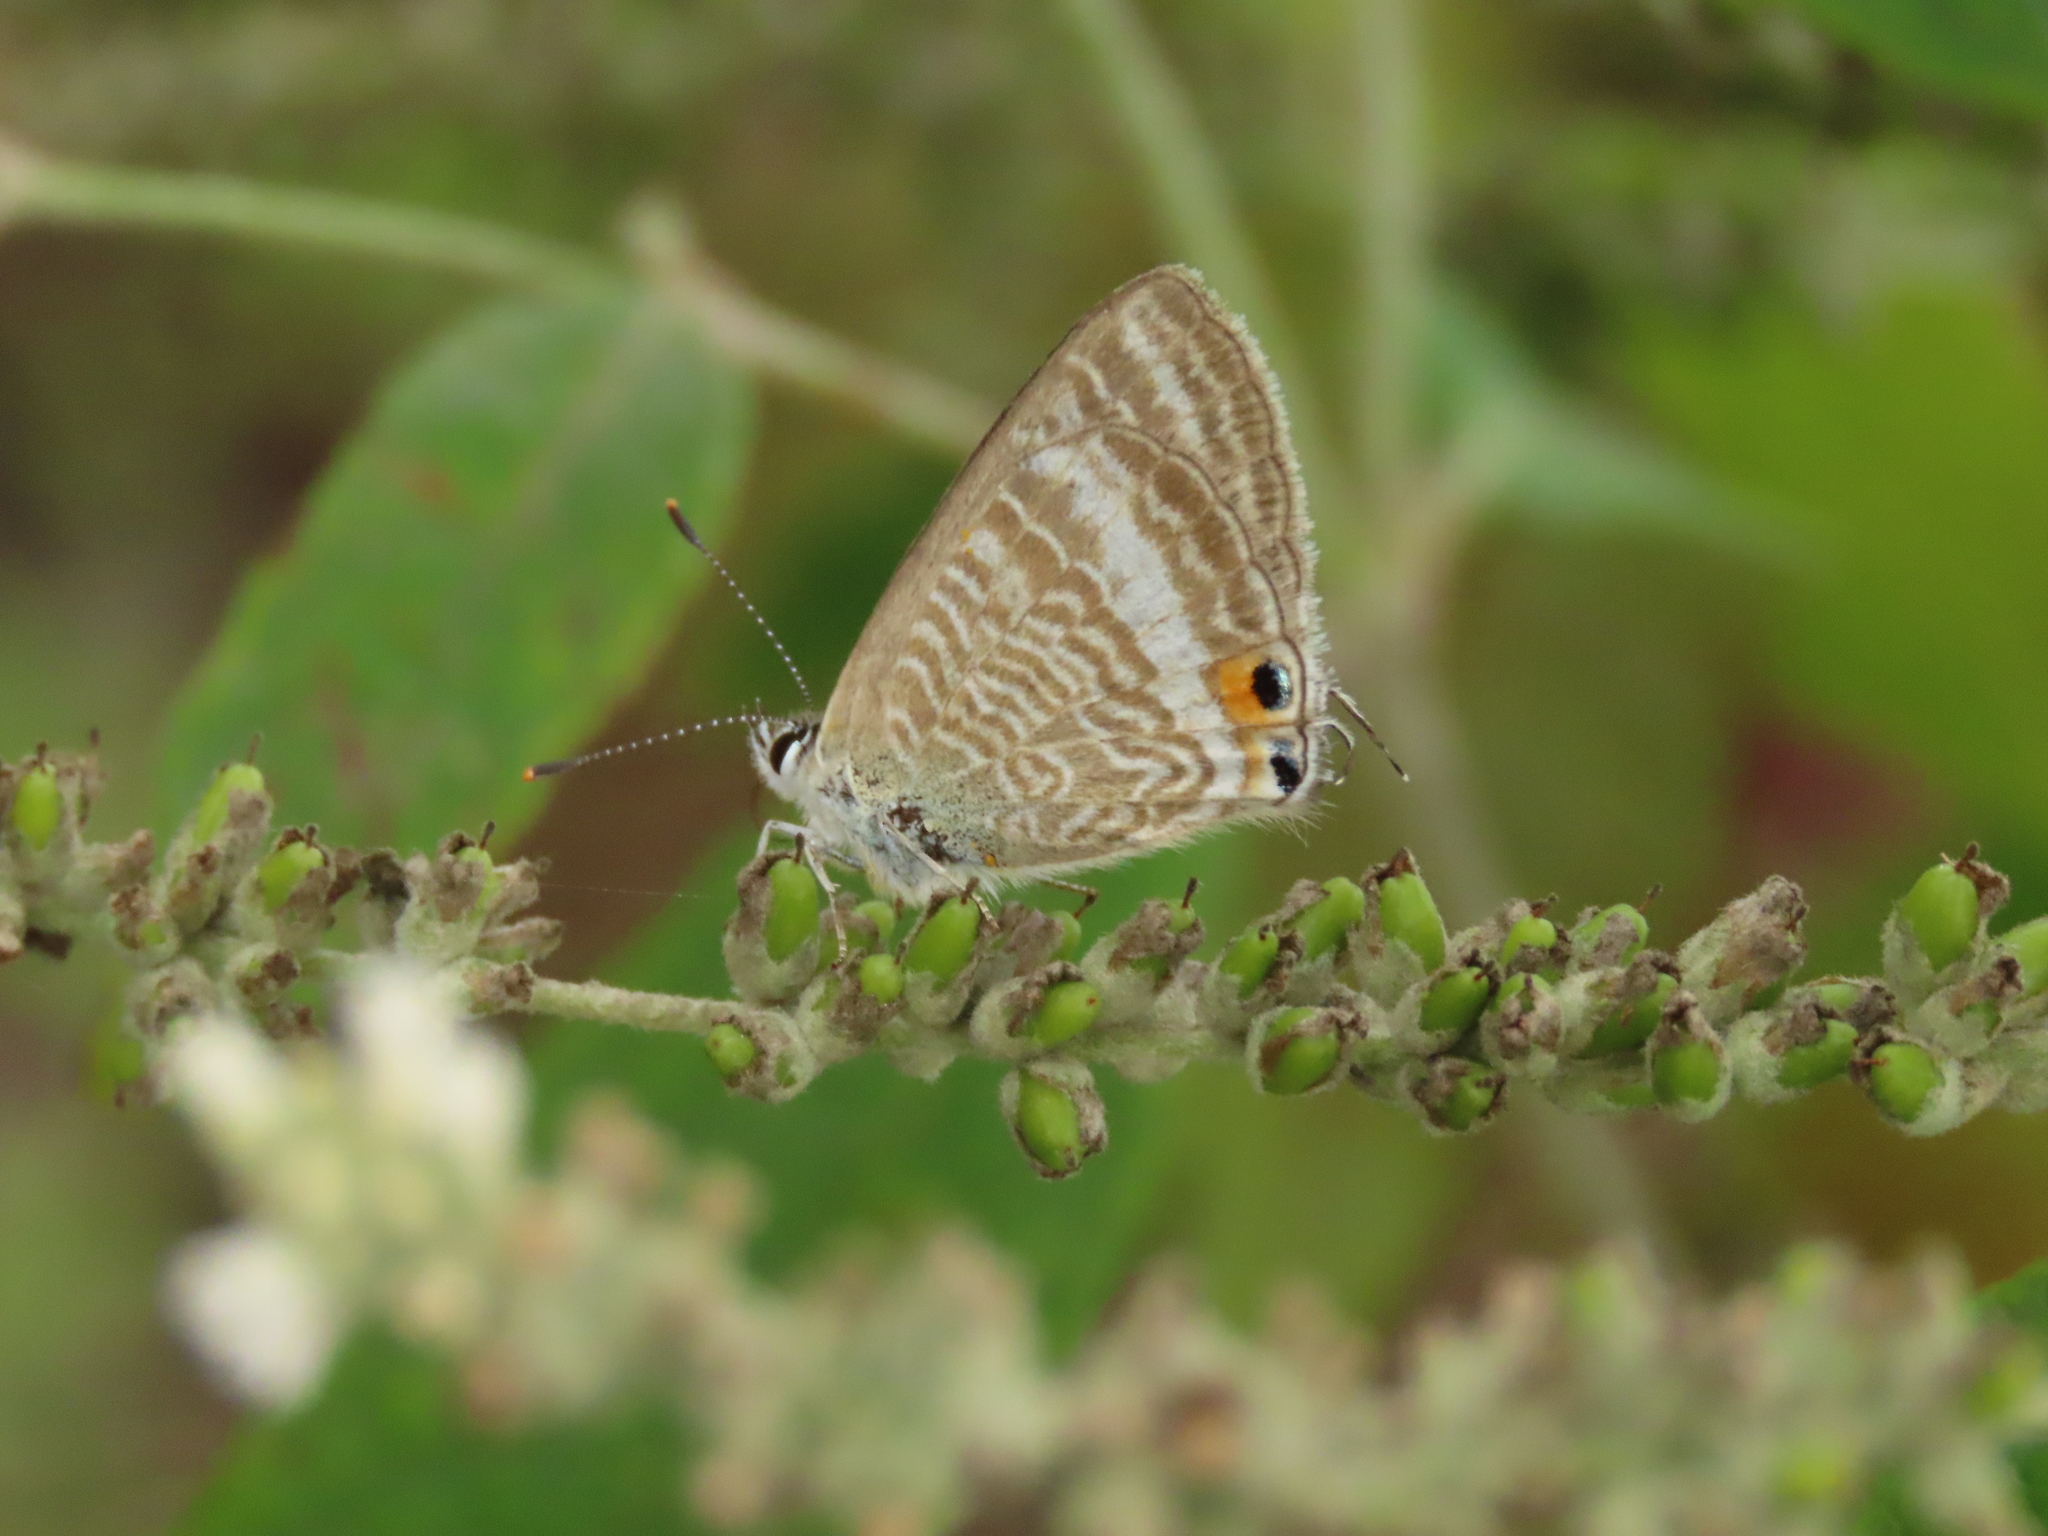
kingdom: Animalia
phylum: Arthropoda
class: Insecta
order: Lepidoptera
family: Lycaenidae
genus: Lampides
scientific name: Lampides boeticus
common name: Long-tailed blue
